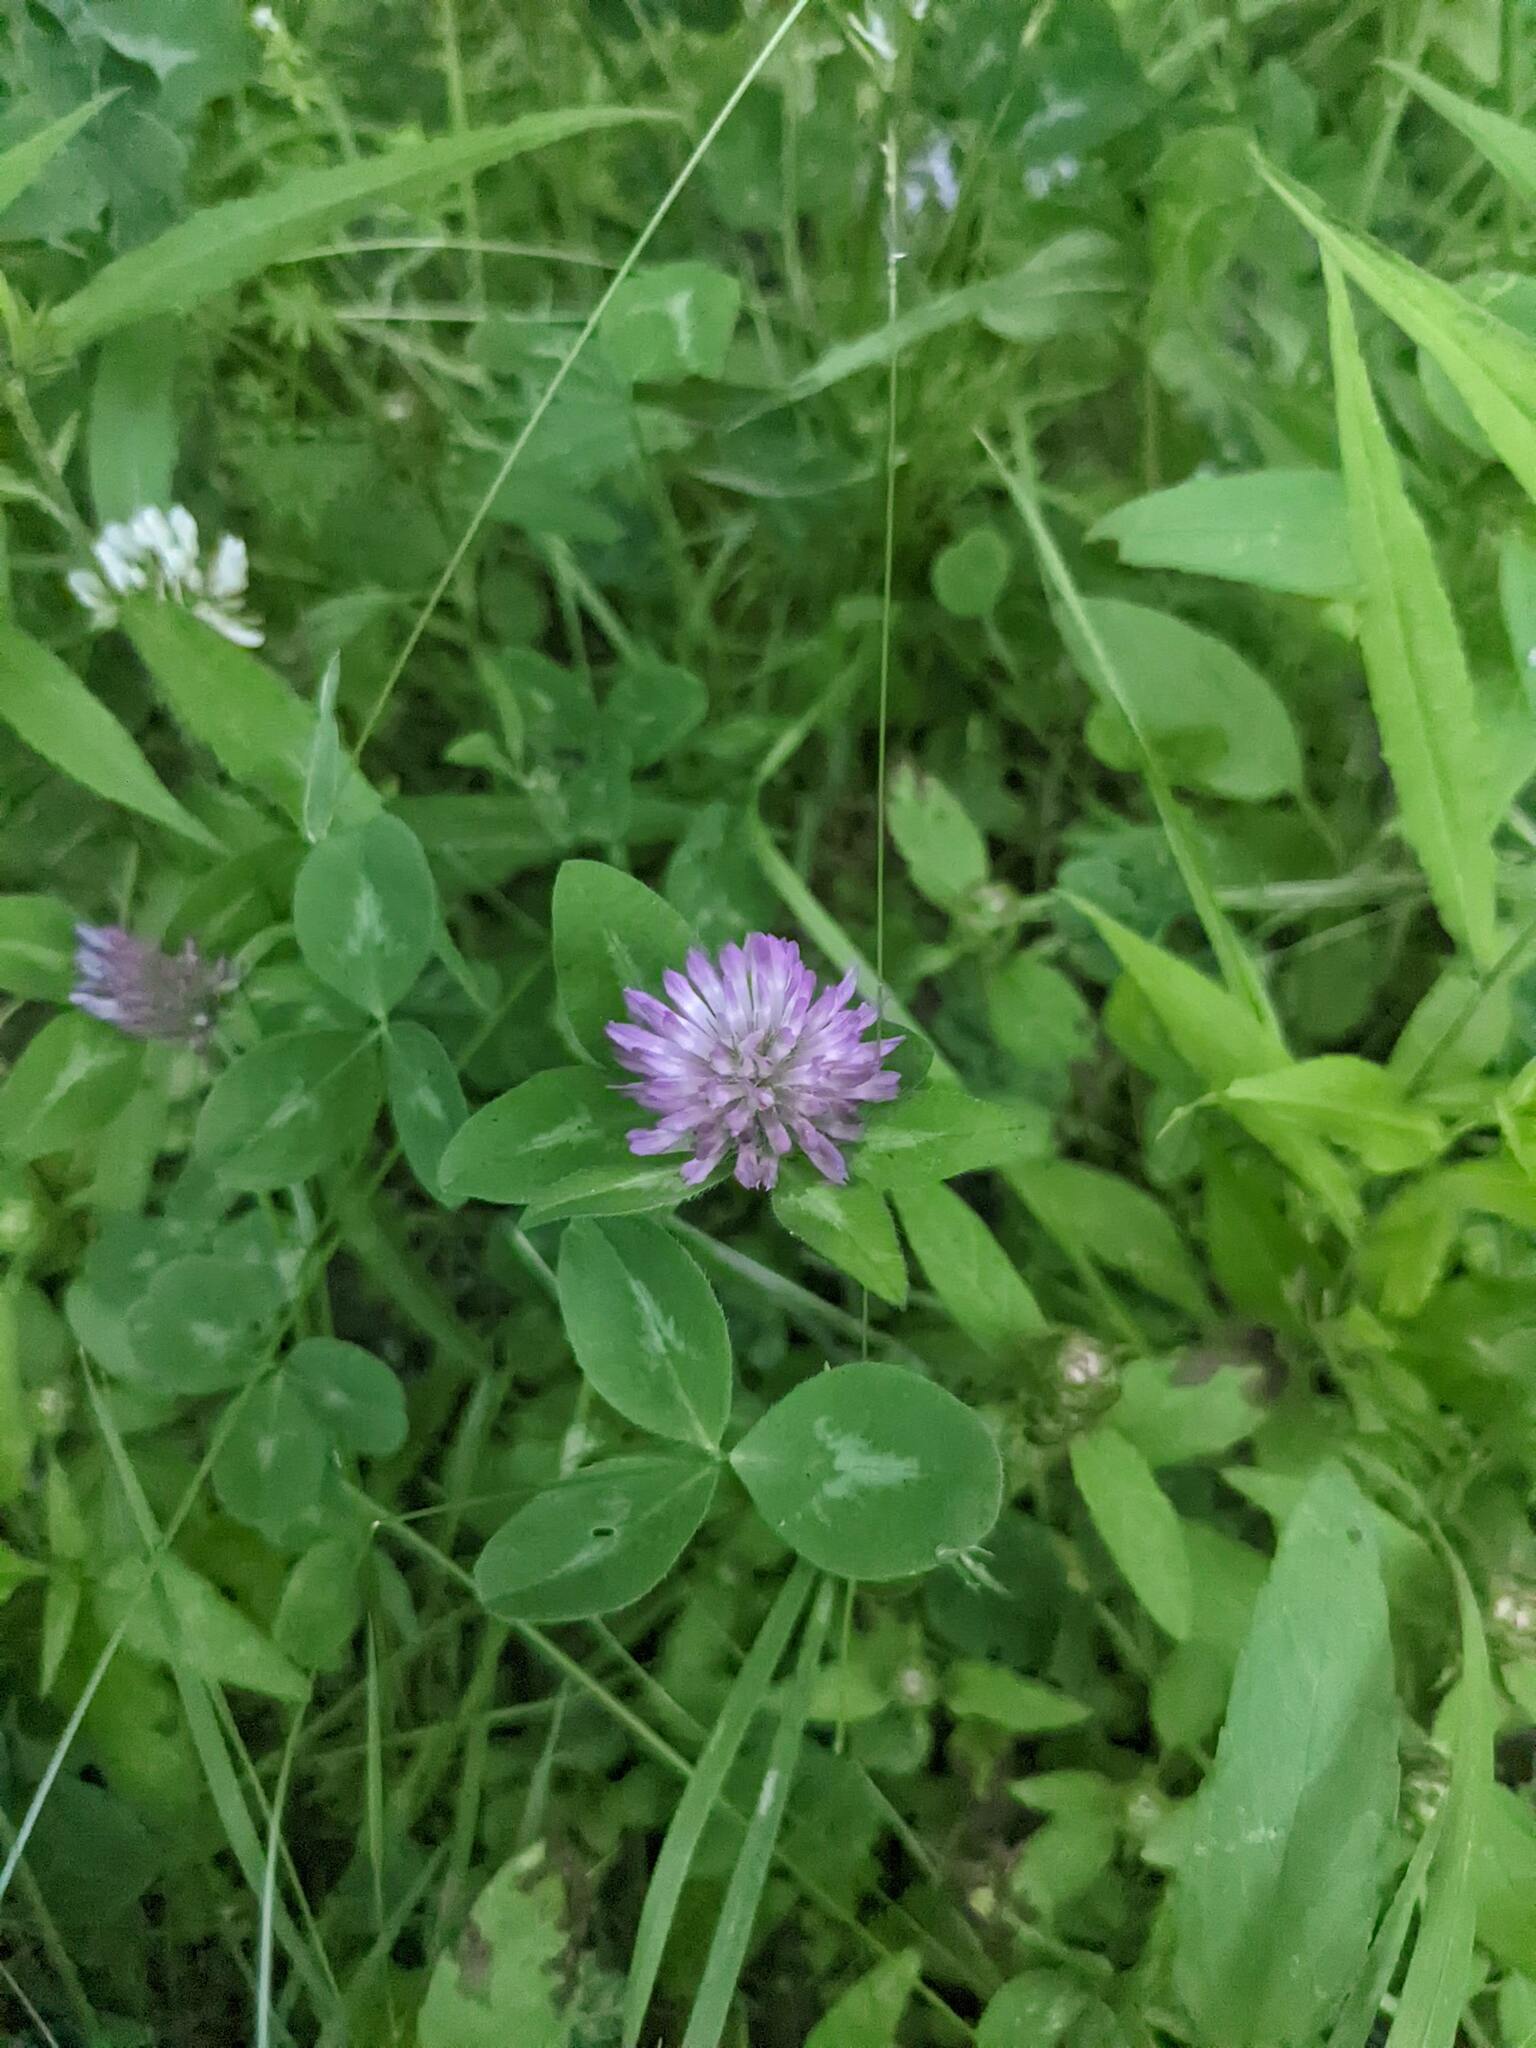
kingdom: Plantae
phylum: Tracheophyta
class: Magnoliopsida
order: Fabales
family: Fabaceae
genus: Trifolium
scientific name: Trifolium pratense
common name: Red clover
